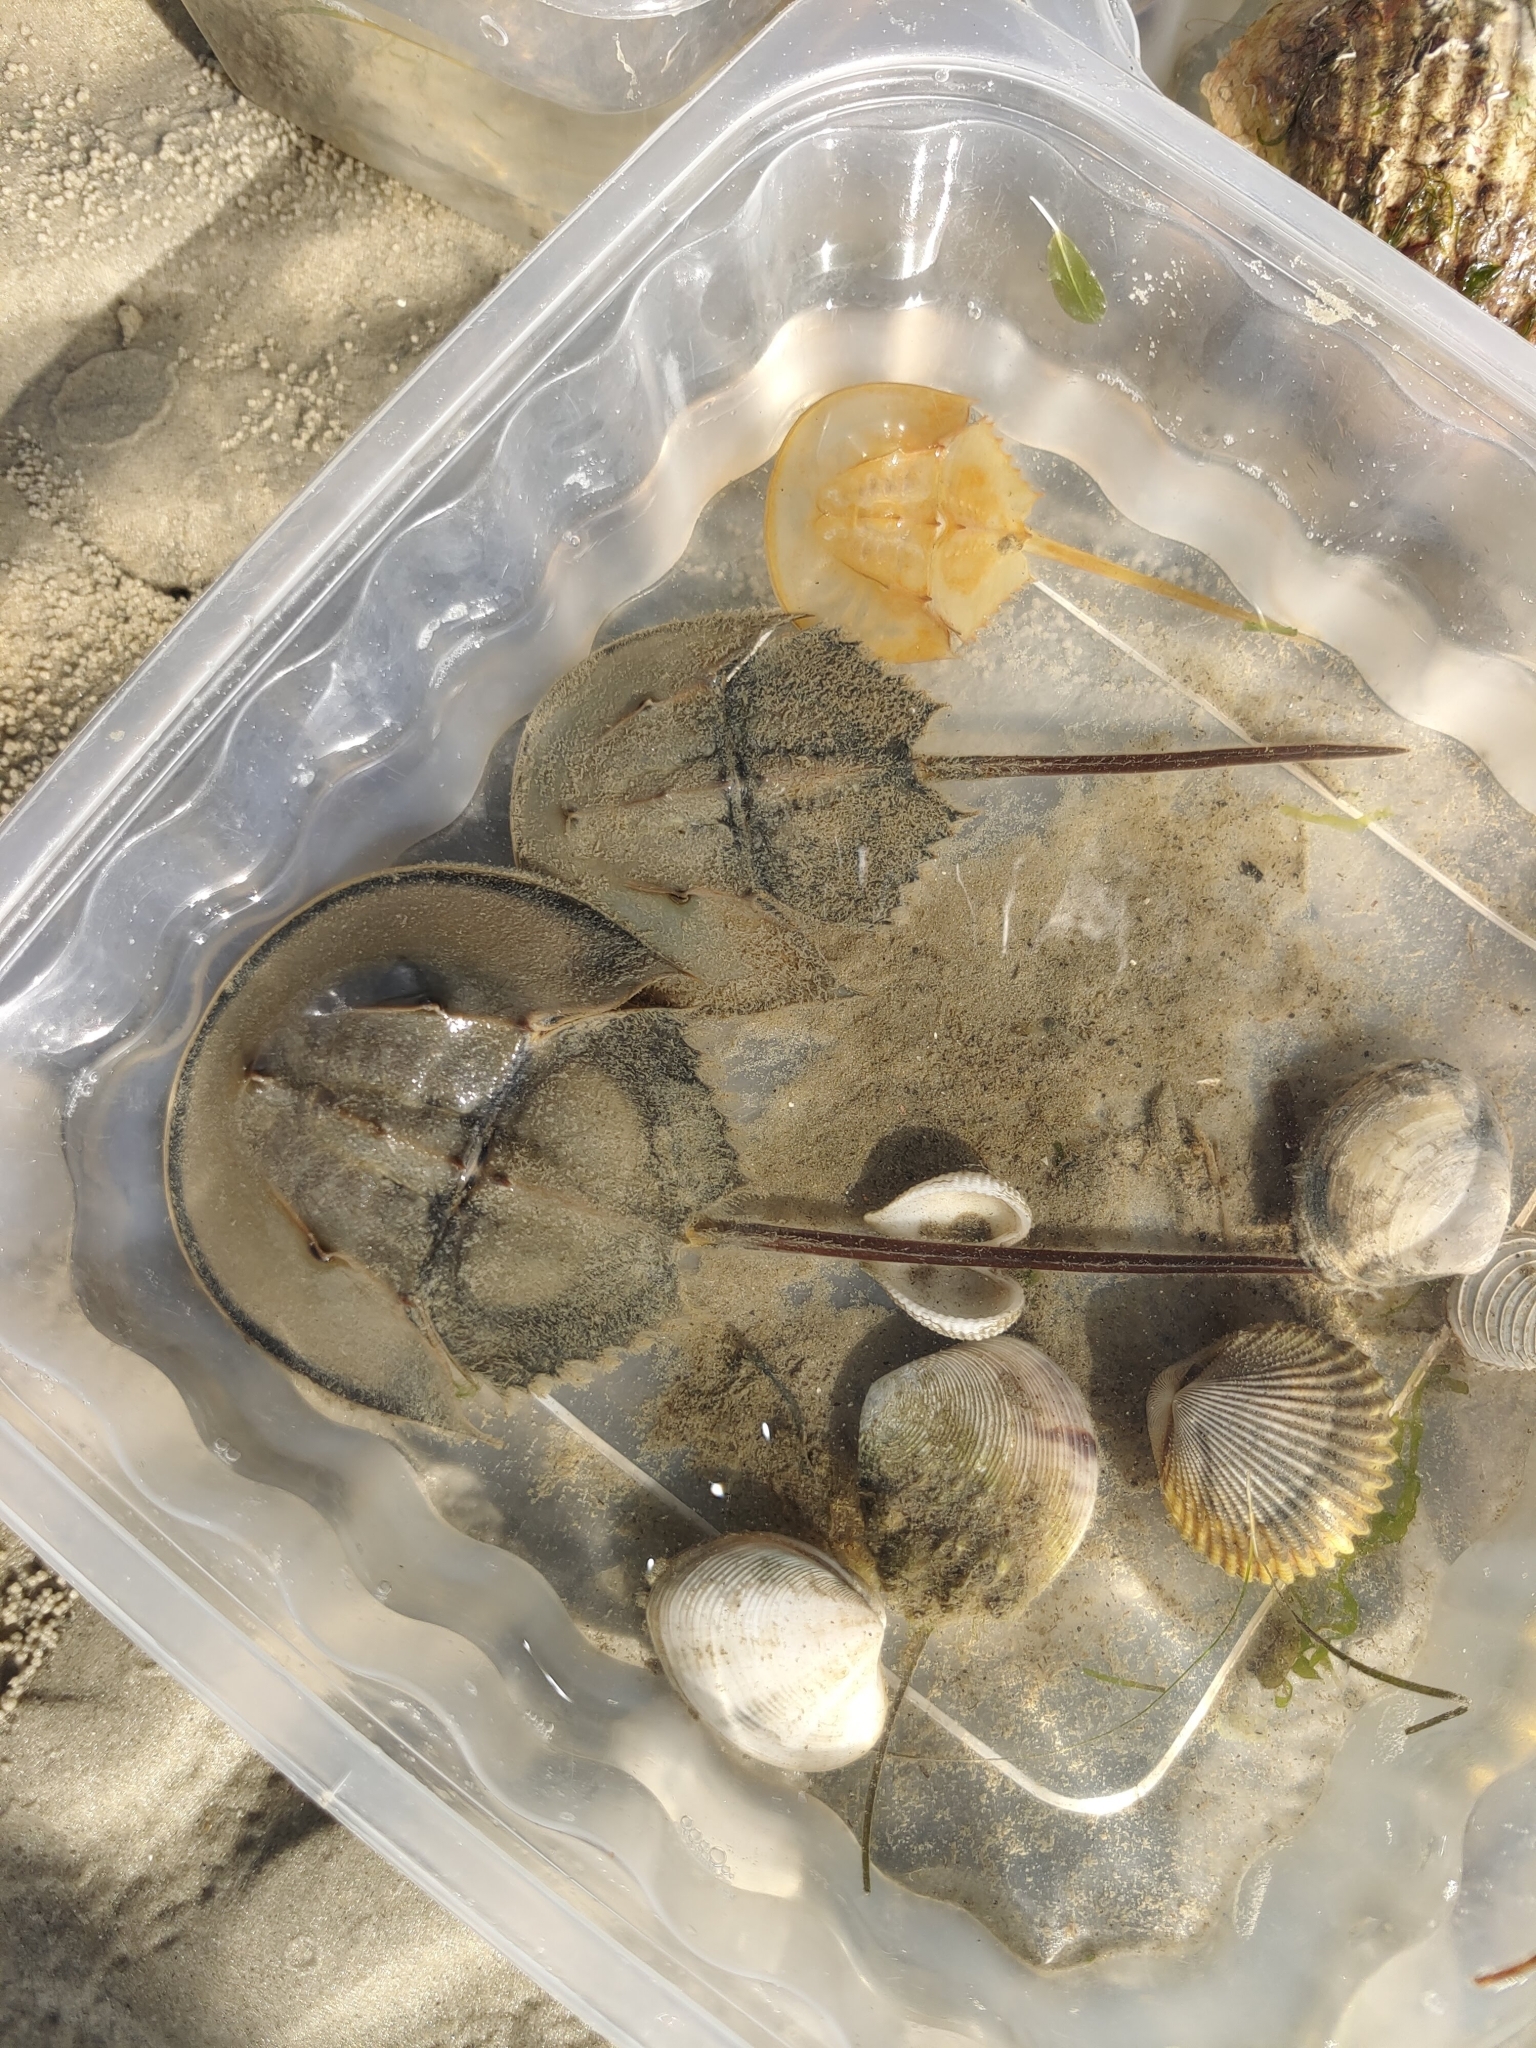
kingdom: Animalia
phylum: Arthropoda
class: Merostomata
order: Xiphosurida
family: Limulidae
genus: Tachypleus
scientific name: Tachypleus gigas
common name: Coastal horseshoe crab
